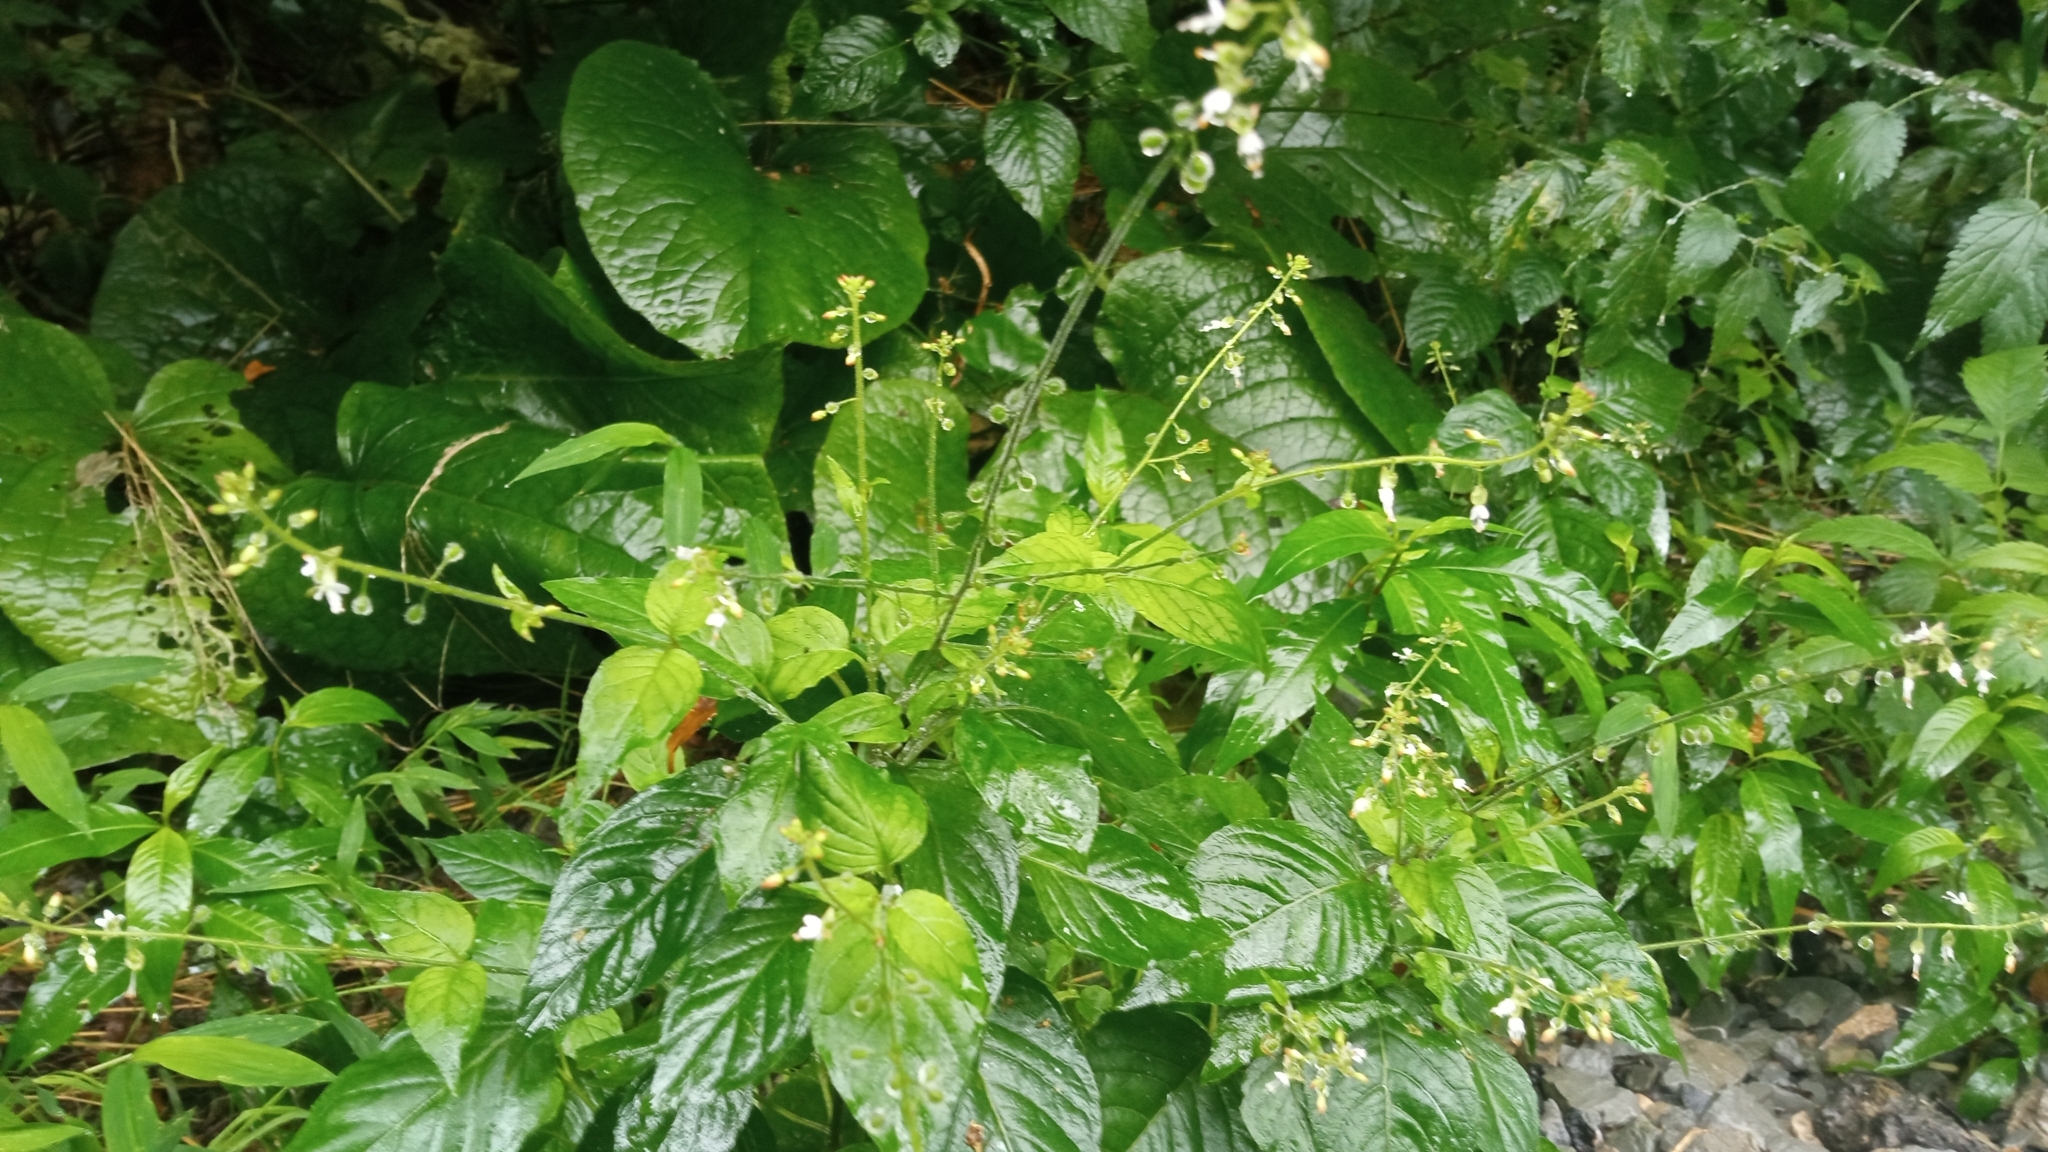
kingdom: Plantae
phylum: Tracheophyta
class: Magnoliopsida
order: Myrtales
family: Onagraceae
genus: Circaea
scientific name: Circaea lutetiana
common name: Enchanter's-nightshade
